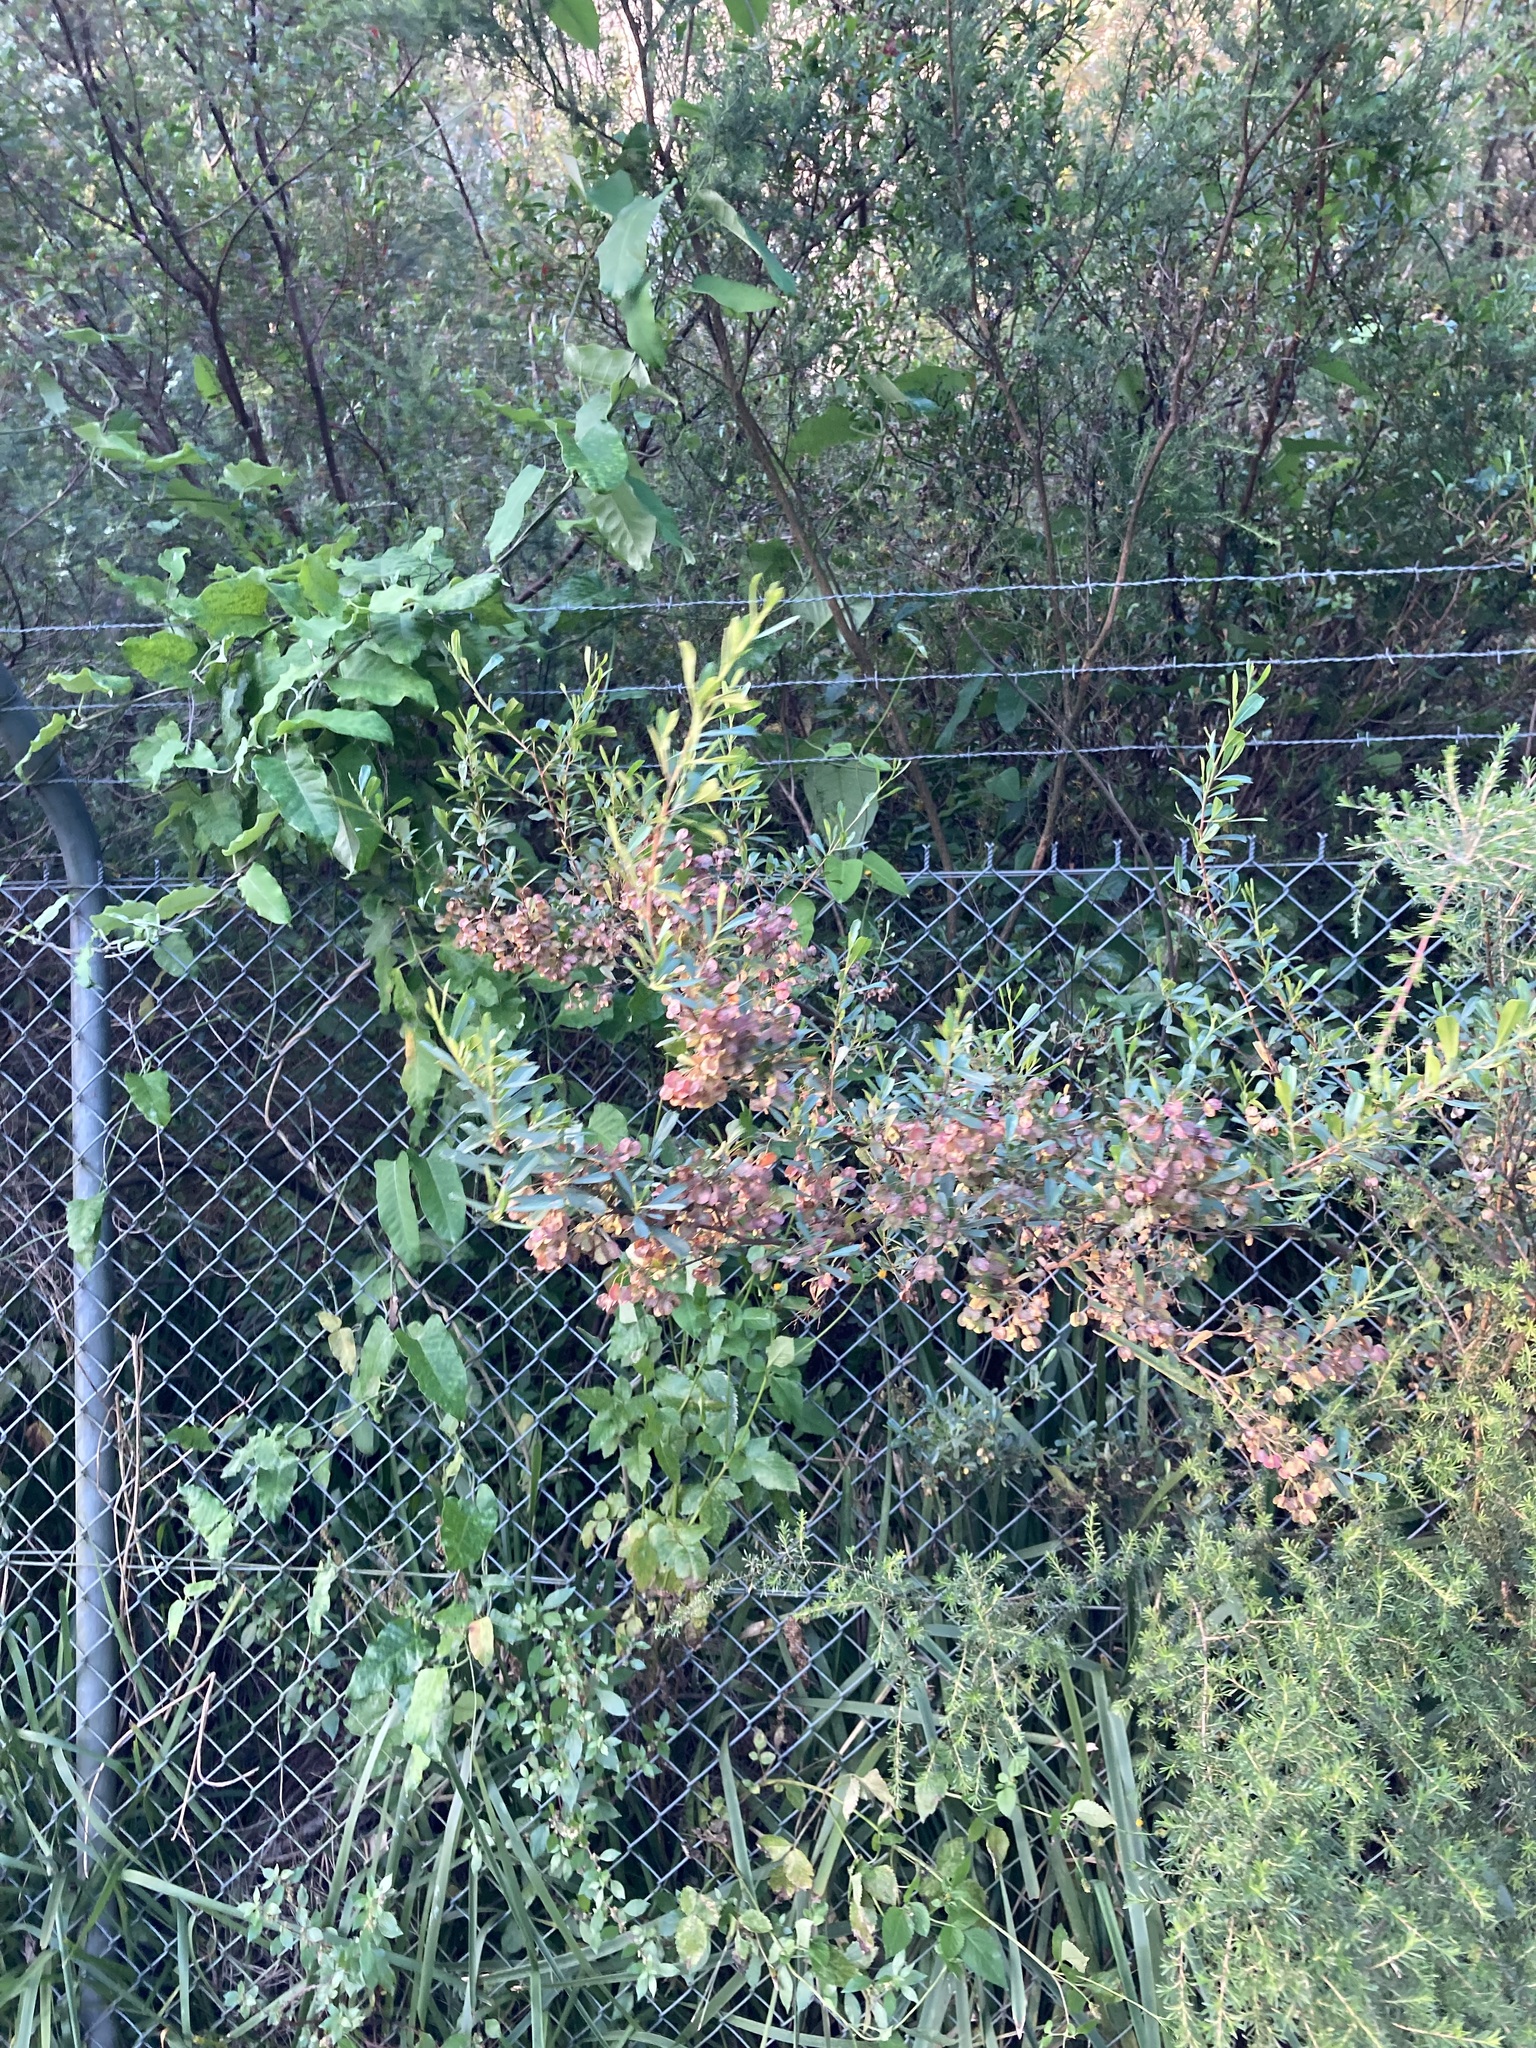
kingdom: Plantae
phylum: Tracheophyta
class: Magnoliopsida
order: Sapindales
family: Sapindaceae
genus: Dodonaea
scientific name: Dodonaea viscosa
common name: Hopbush
